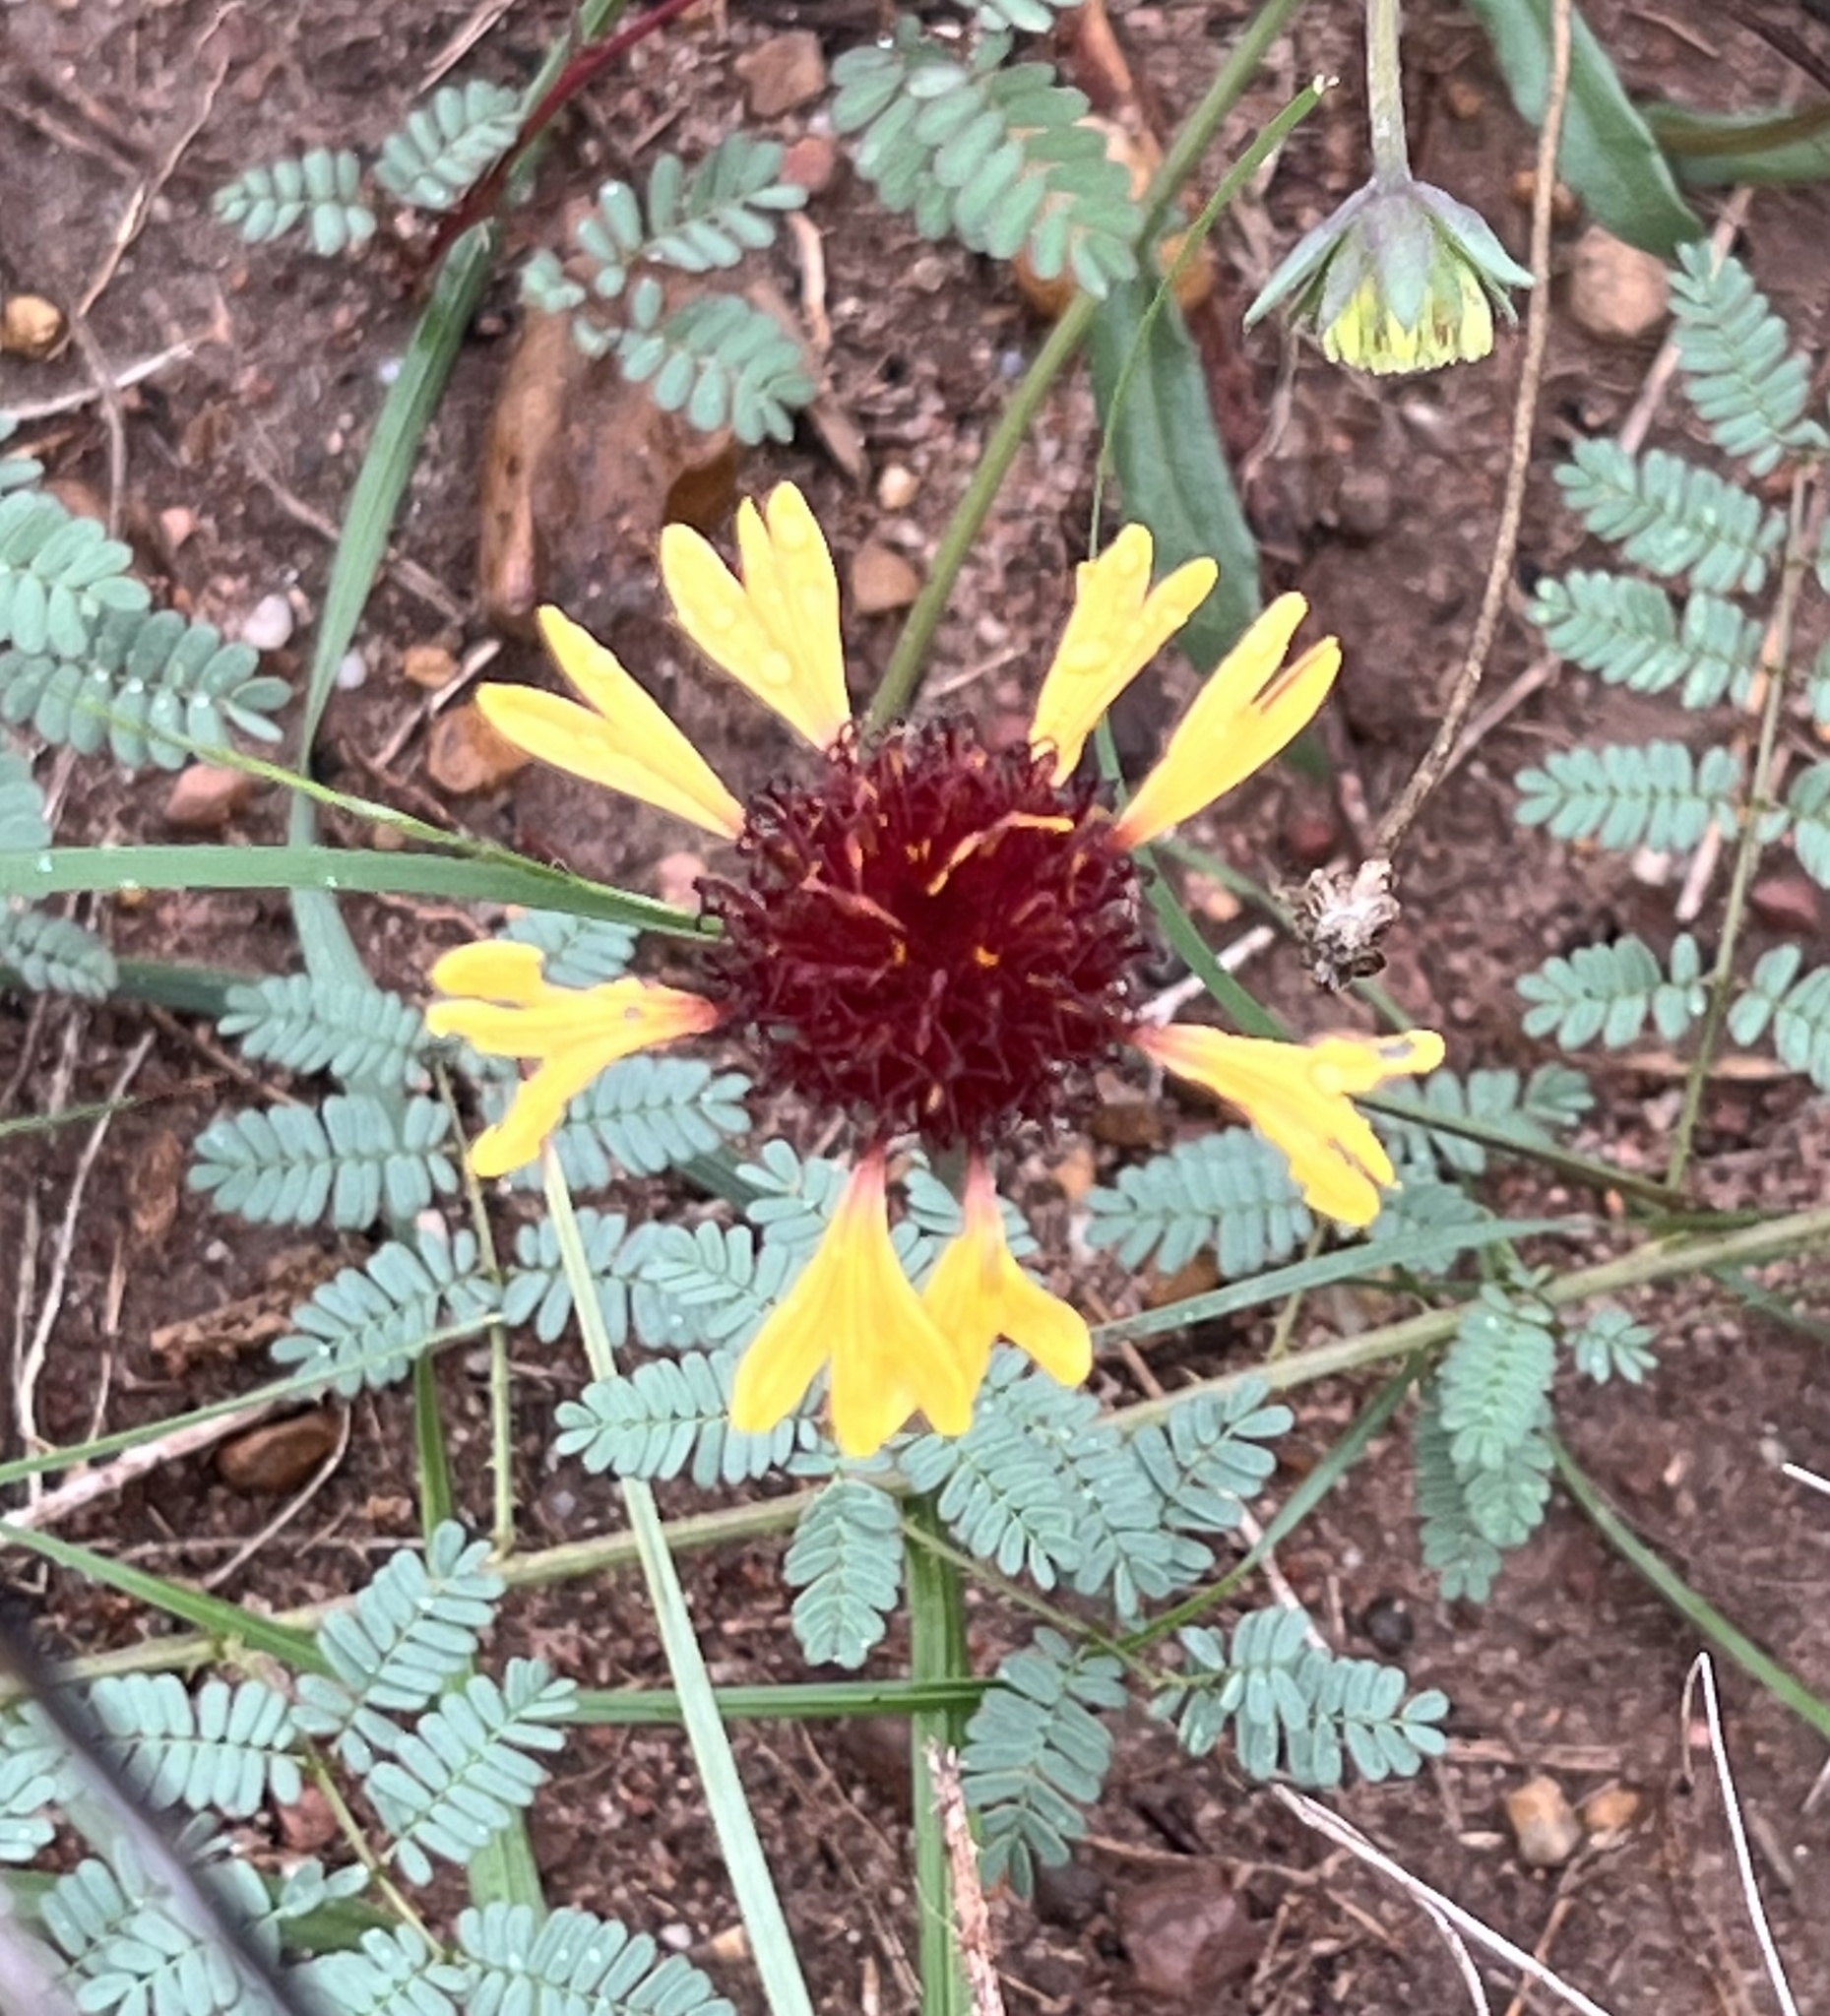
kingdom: Plantae
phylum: Tracheophyta
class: Magnoliopsida
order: Asterales
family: Asteraceae
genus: Gaillardia
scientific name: Gaillardia aestivalis
